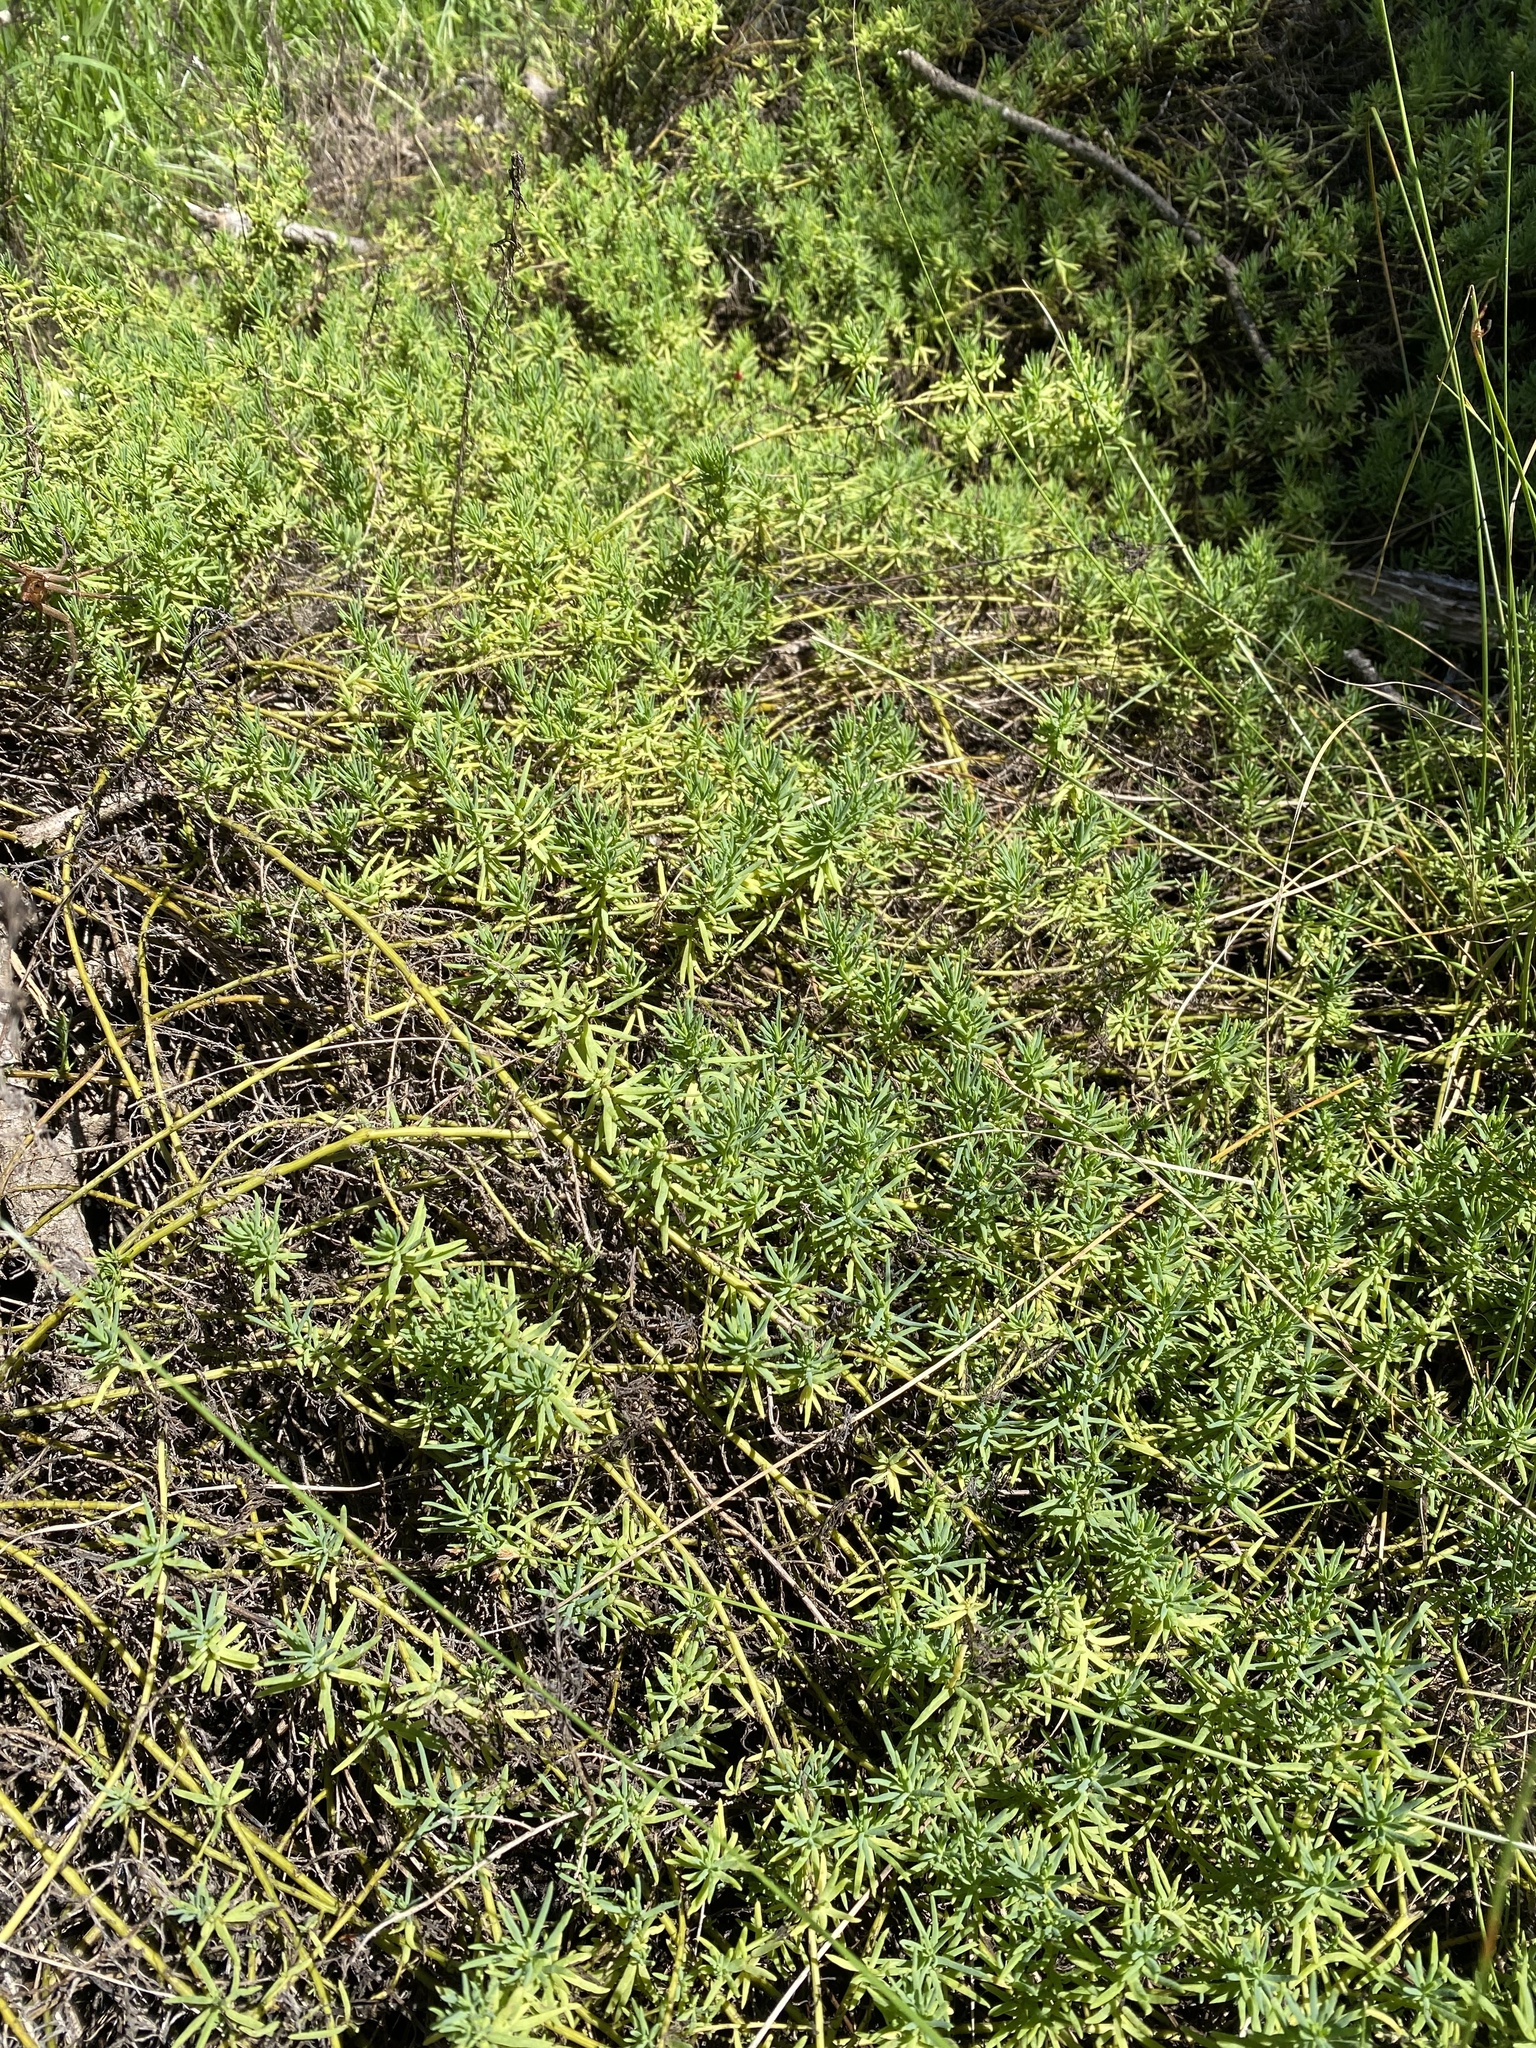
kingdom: Plantae
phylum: Tracheophyta
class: Magnoliopsida
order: Caryophyllales
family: Amaranthaceae
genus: Enchylaena
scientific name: Enchylaena tomentosa
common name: Ruby saltbush
